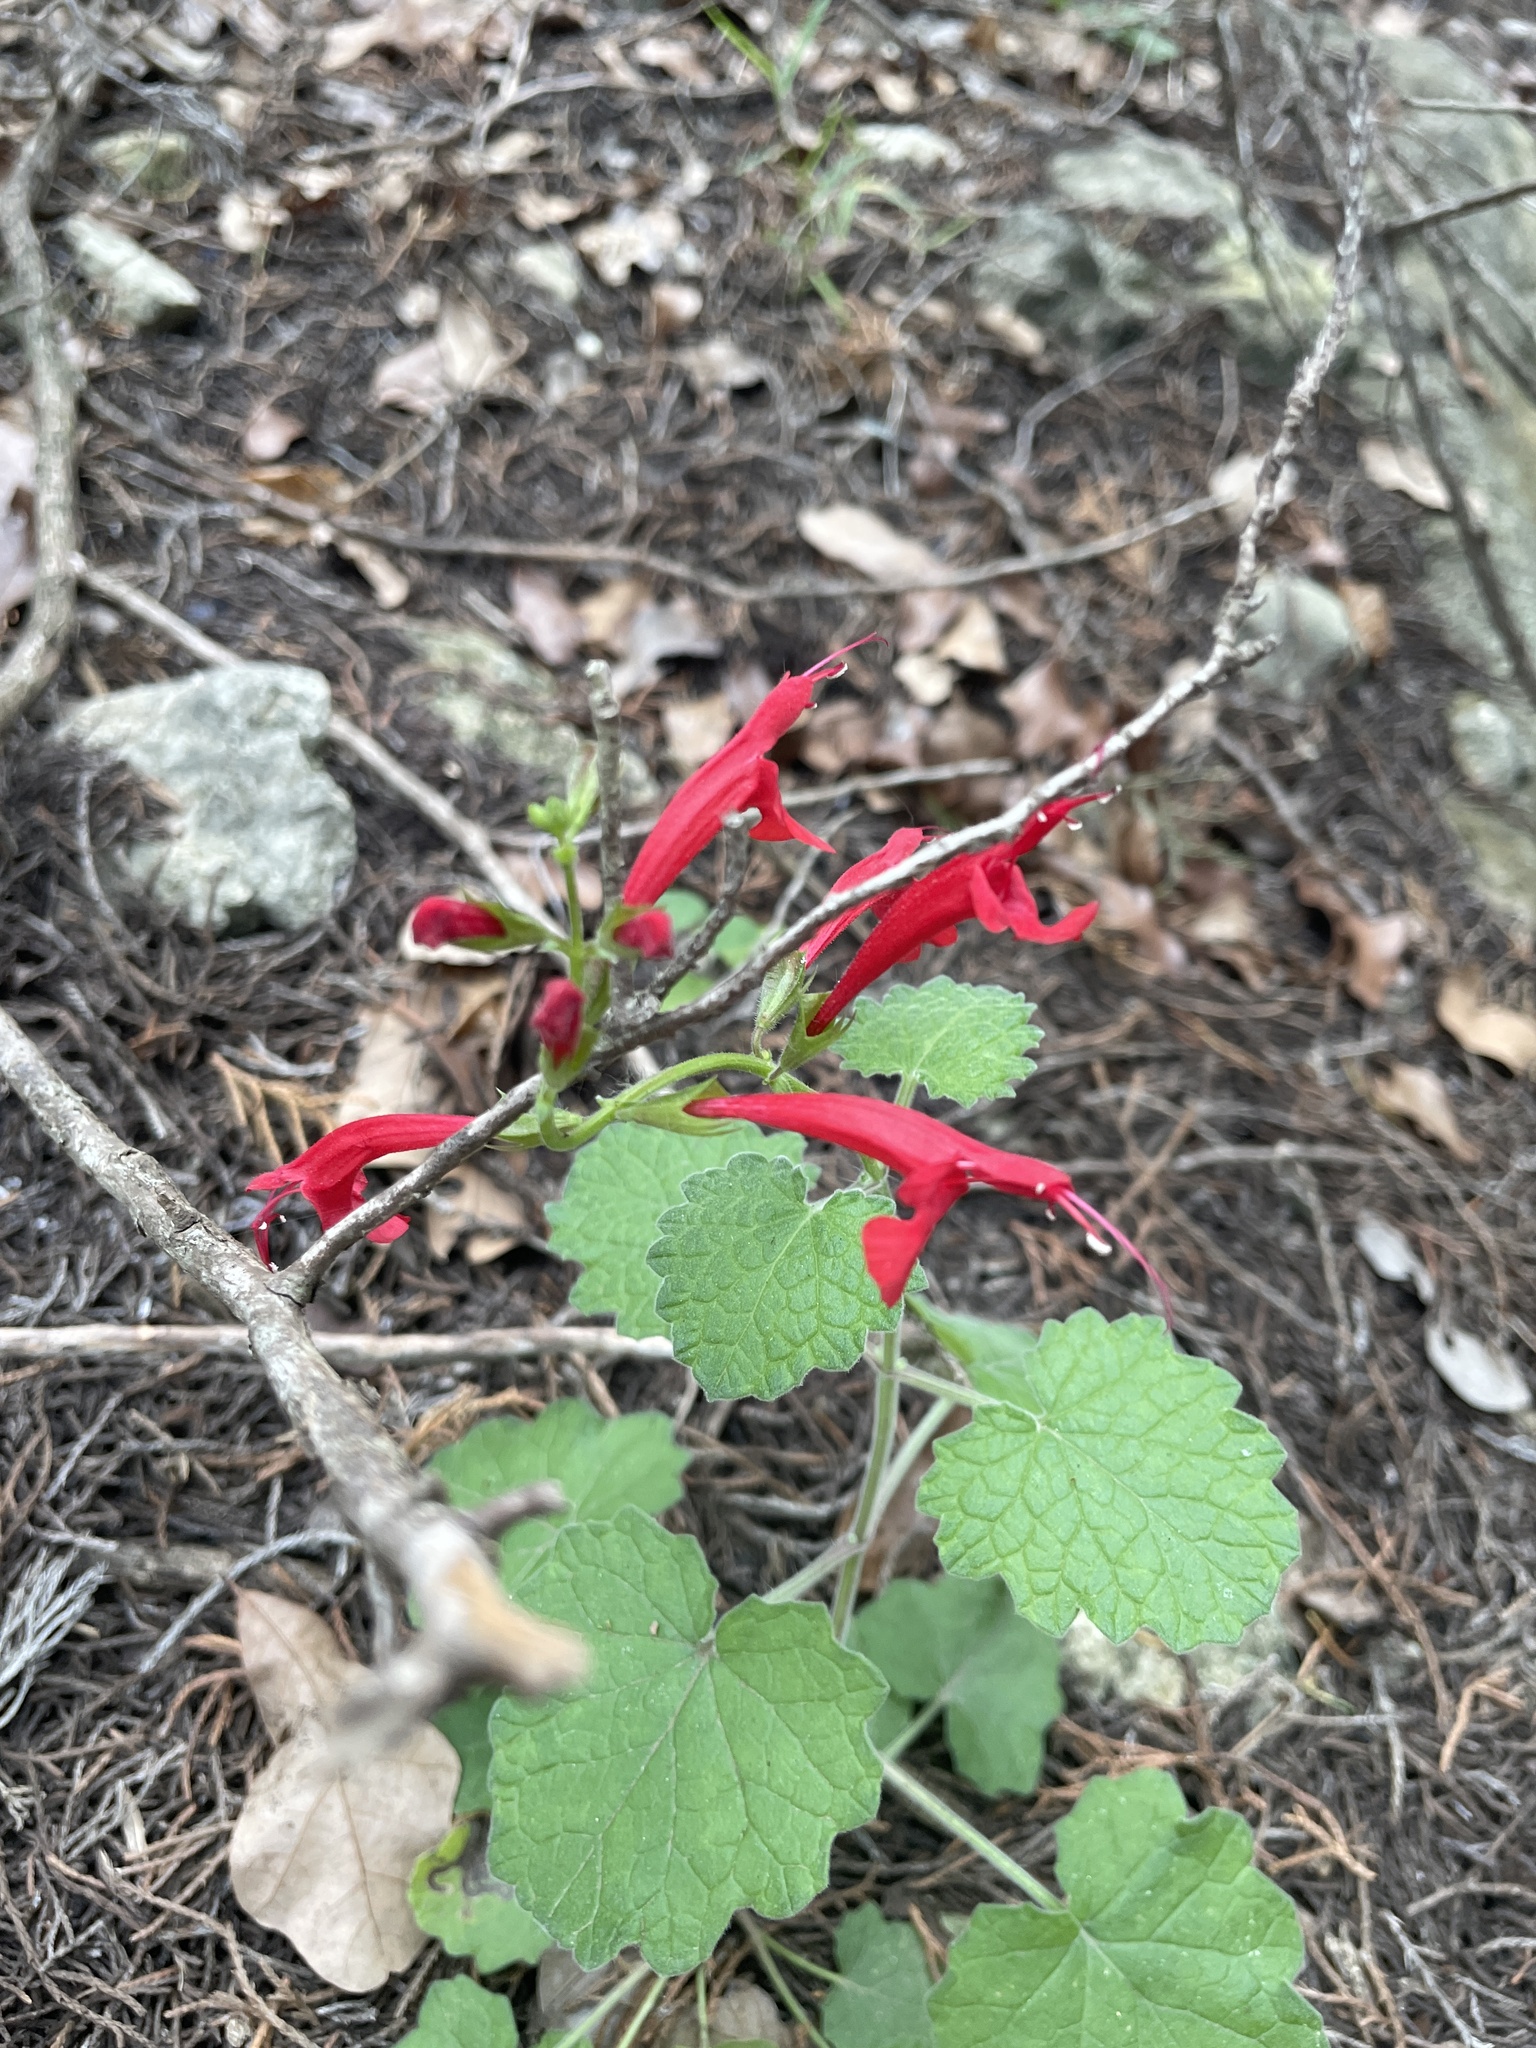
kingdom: Plantae
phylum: Tracheophyta
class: Magnoliopsida
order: Lamiales
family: Lamiaceae
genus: Salvia
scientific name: Salvia roemeriana
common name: Cedar sage
